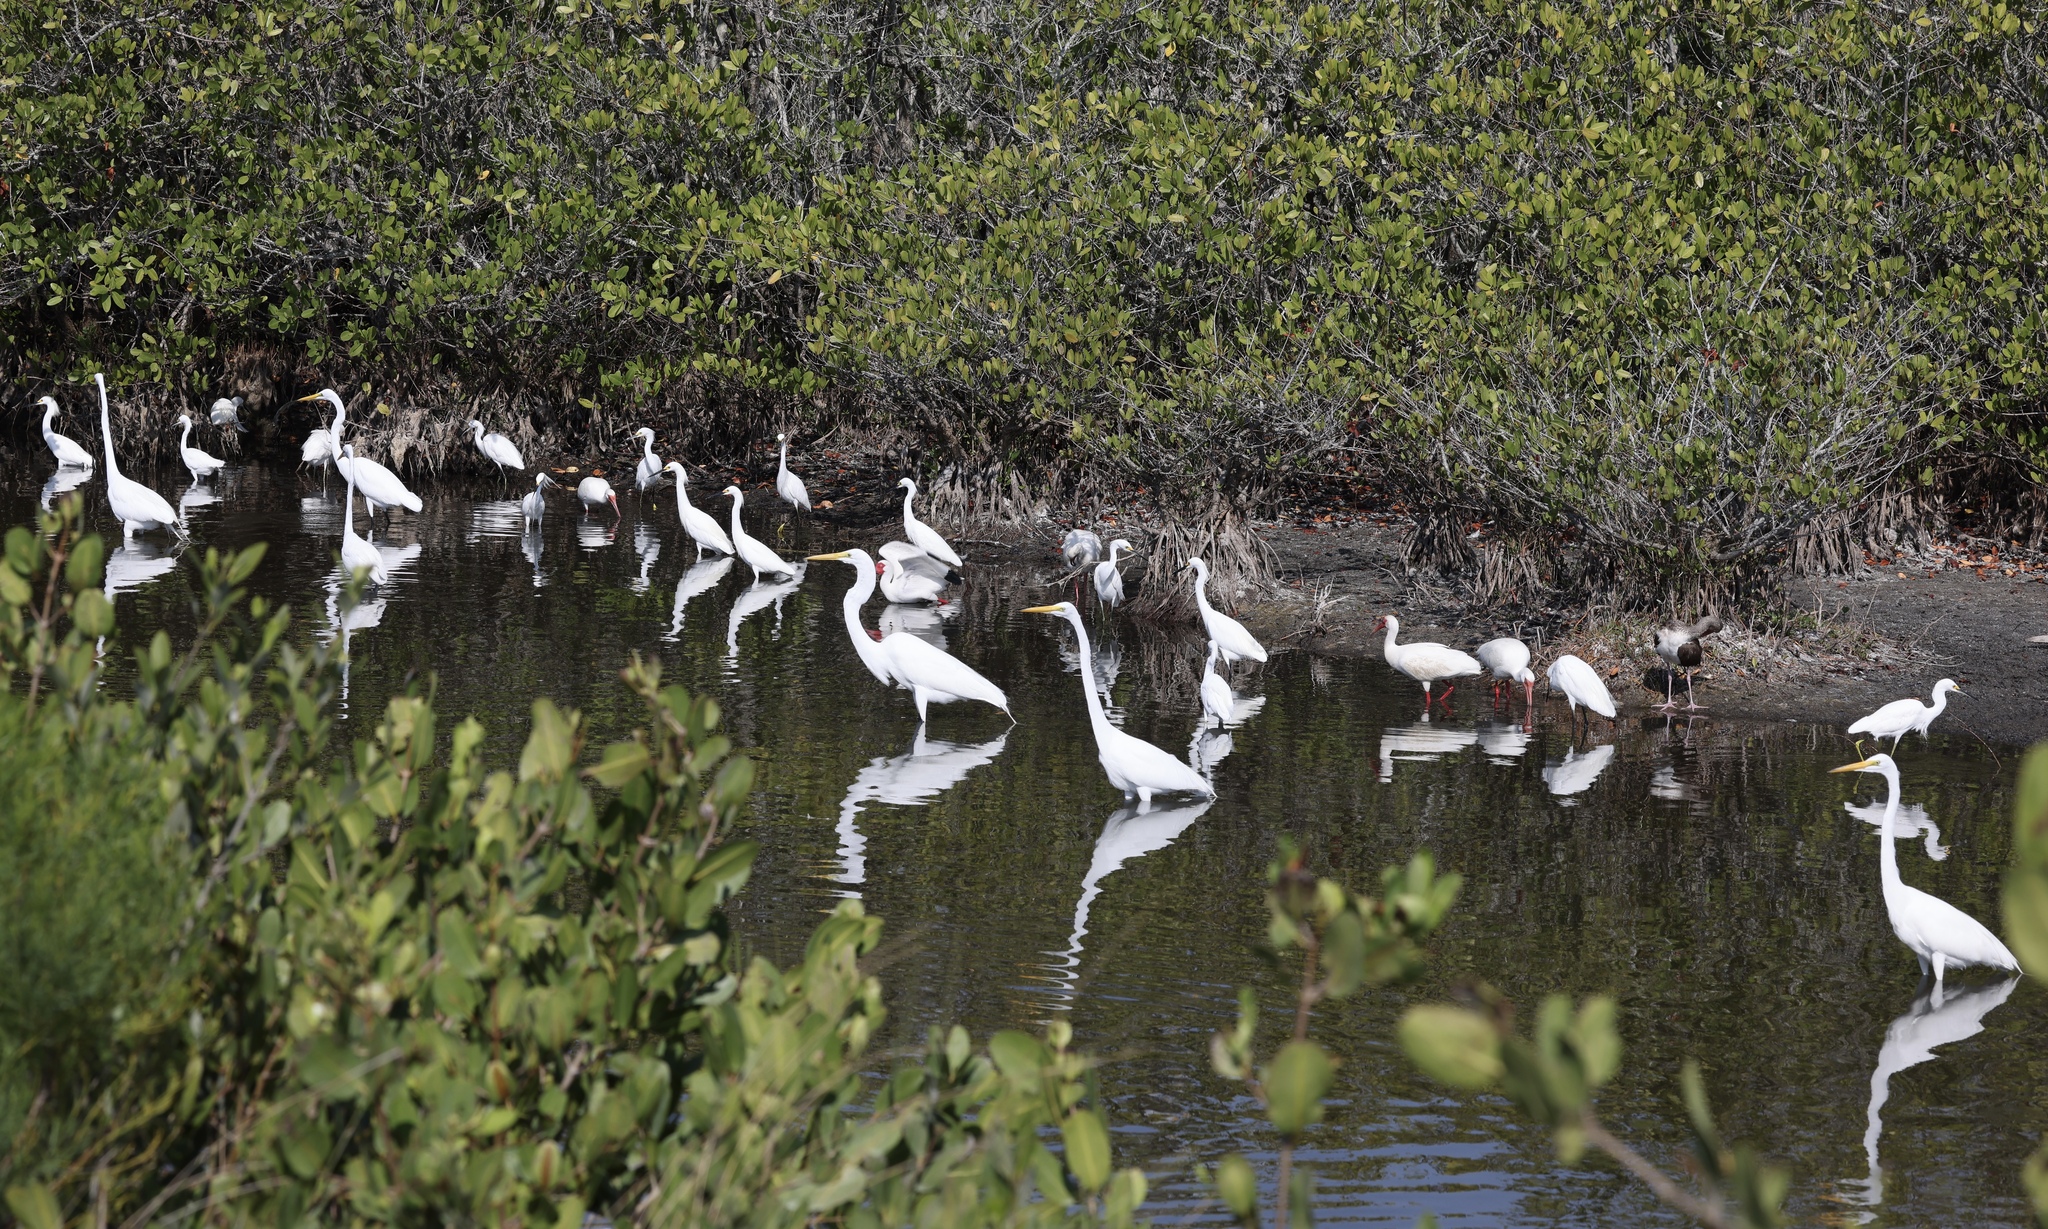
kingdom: Animalia
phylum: Chordata
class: Aves
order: Pelecaniformes
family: Ardeidae
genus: Ardea
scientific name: Ardea alba
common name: Great egret
